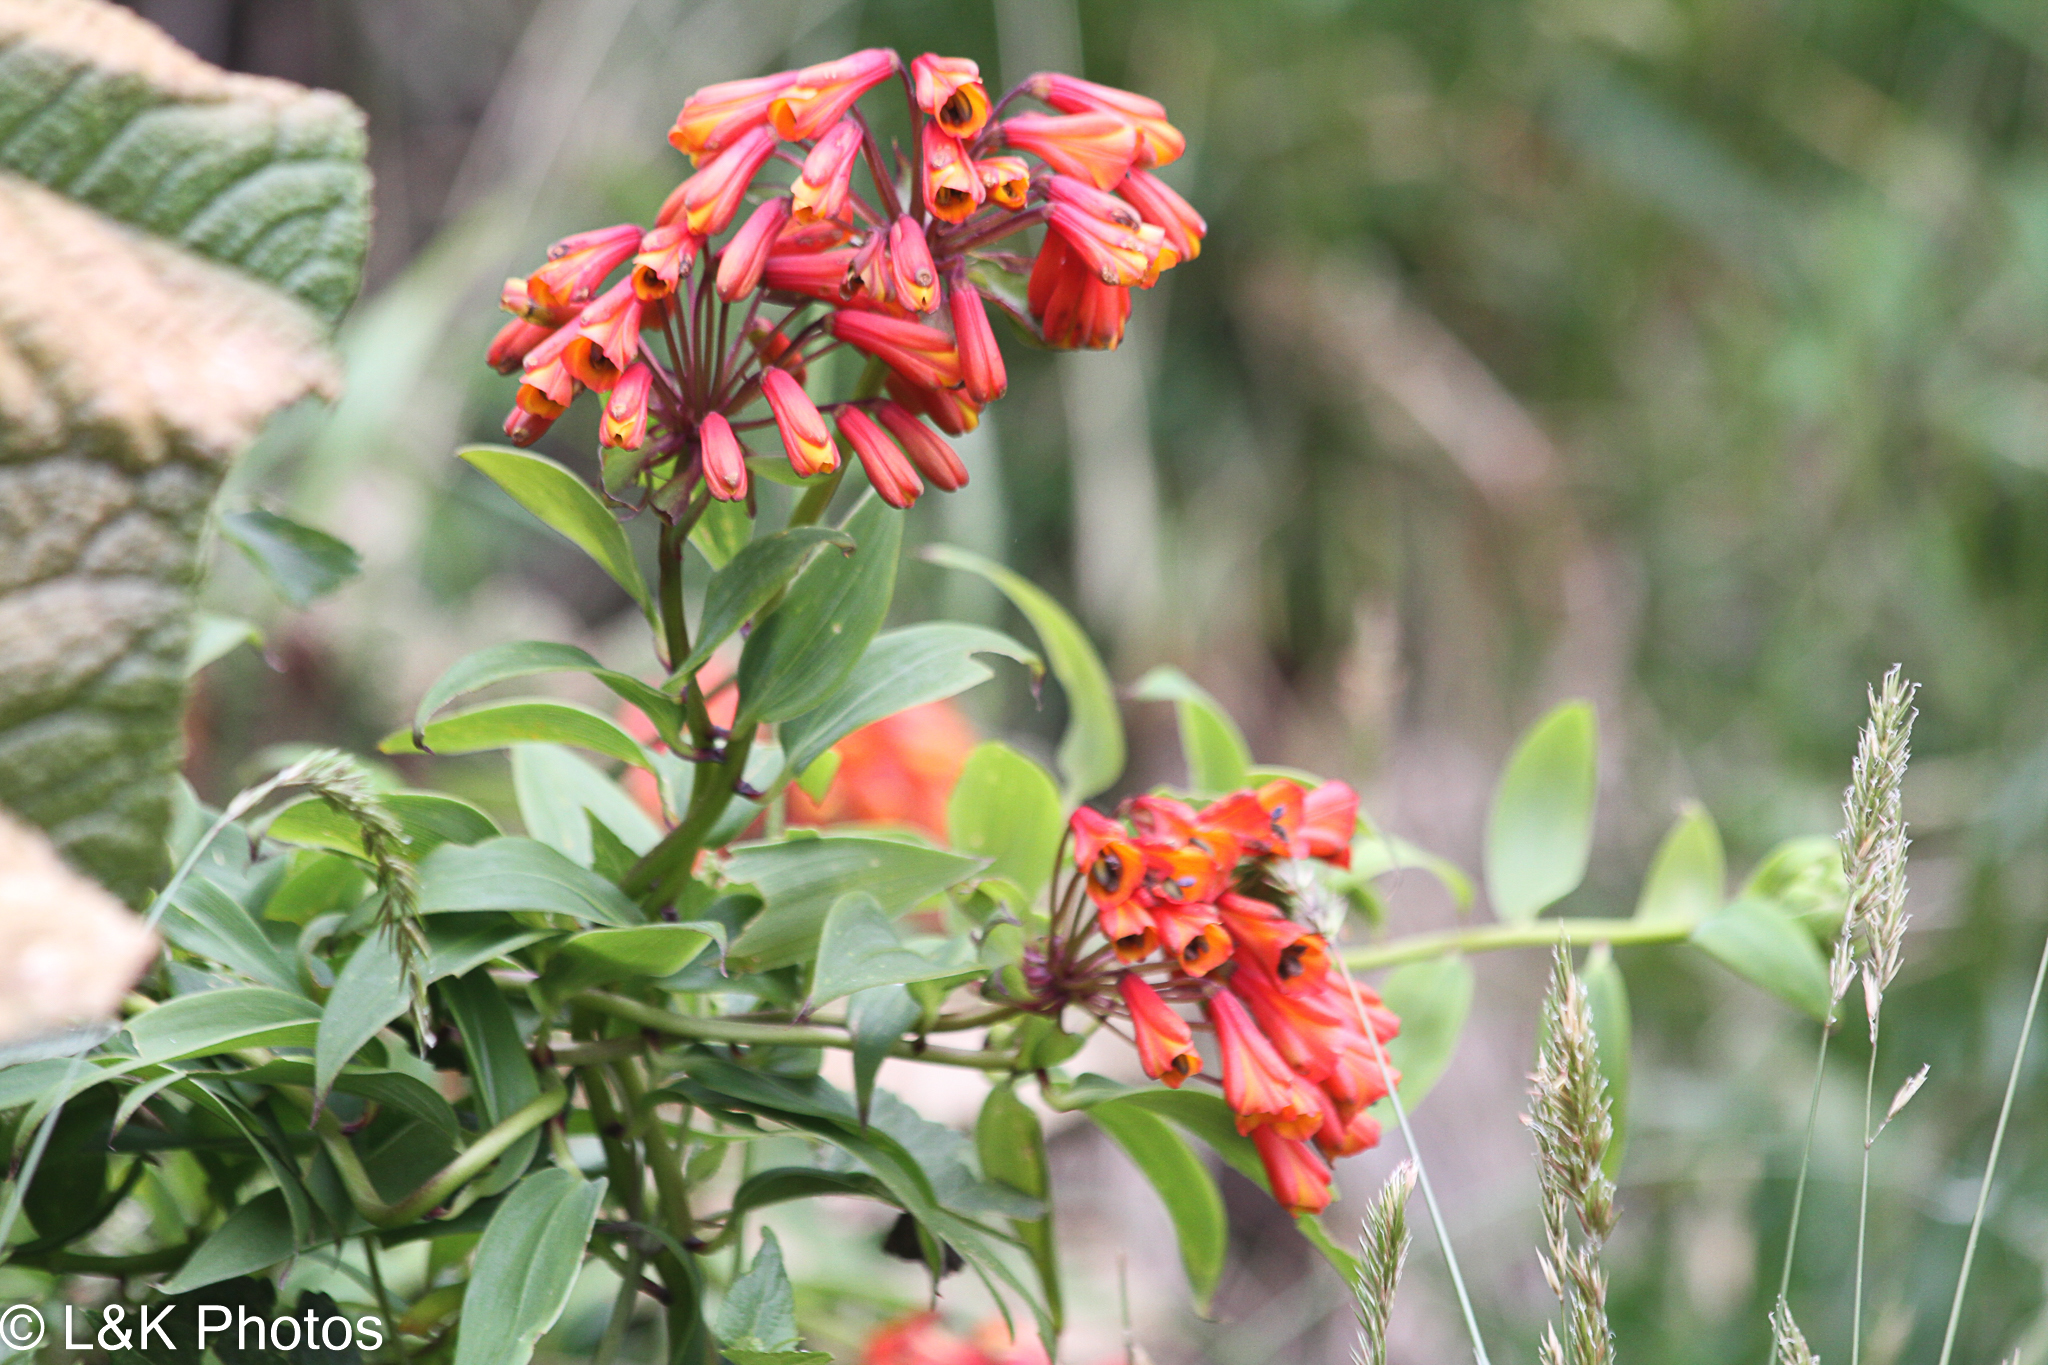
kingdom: Plantae
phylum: Tracheophyta
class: Liliopsida
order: Liliales
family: Alstroemeriaceae
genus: Bomarea
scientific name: Bomarea hirsuta
